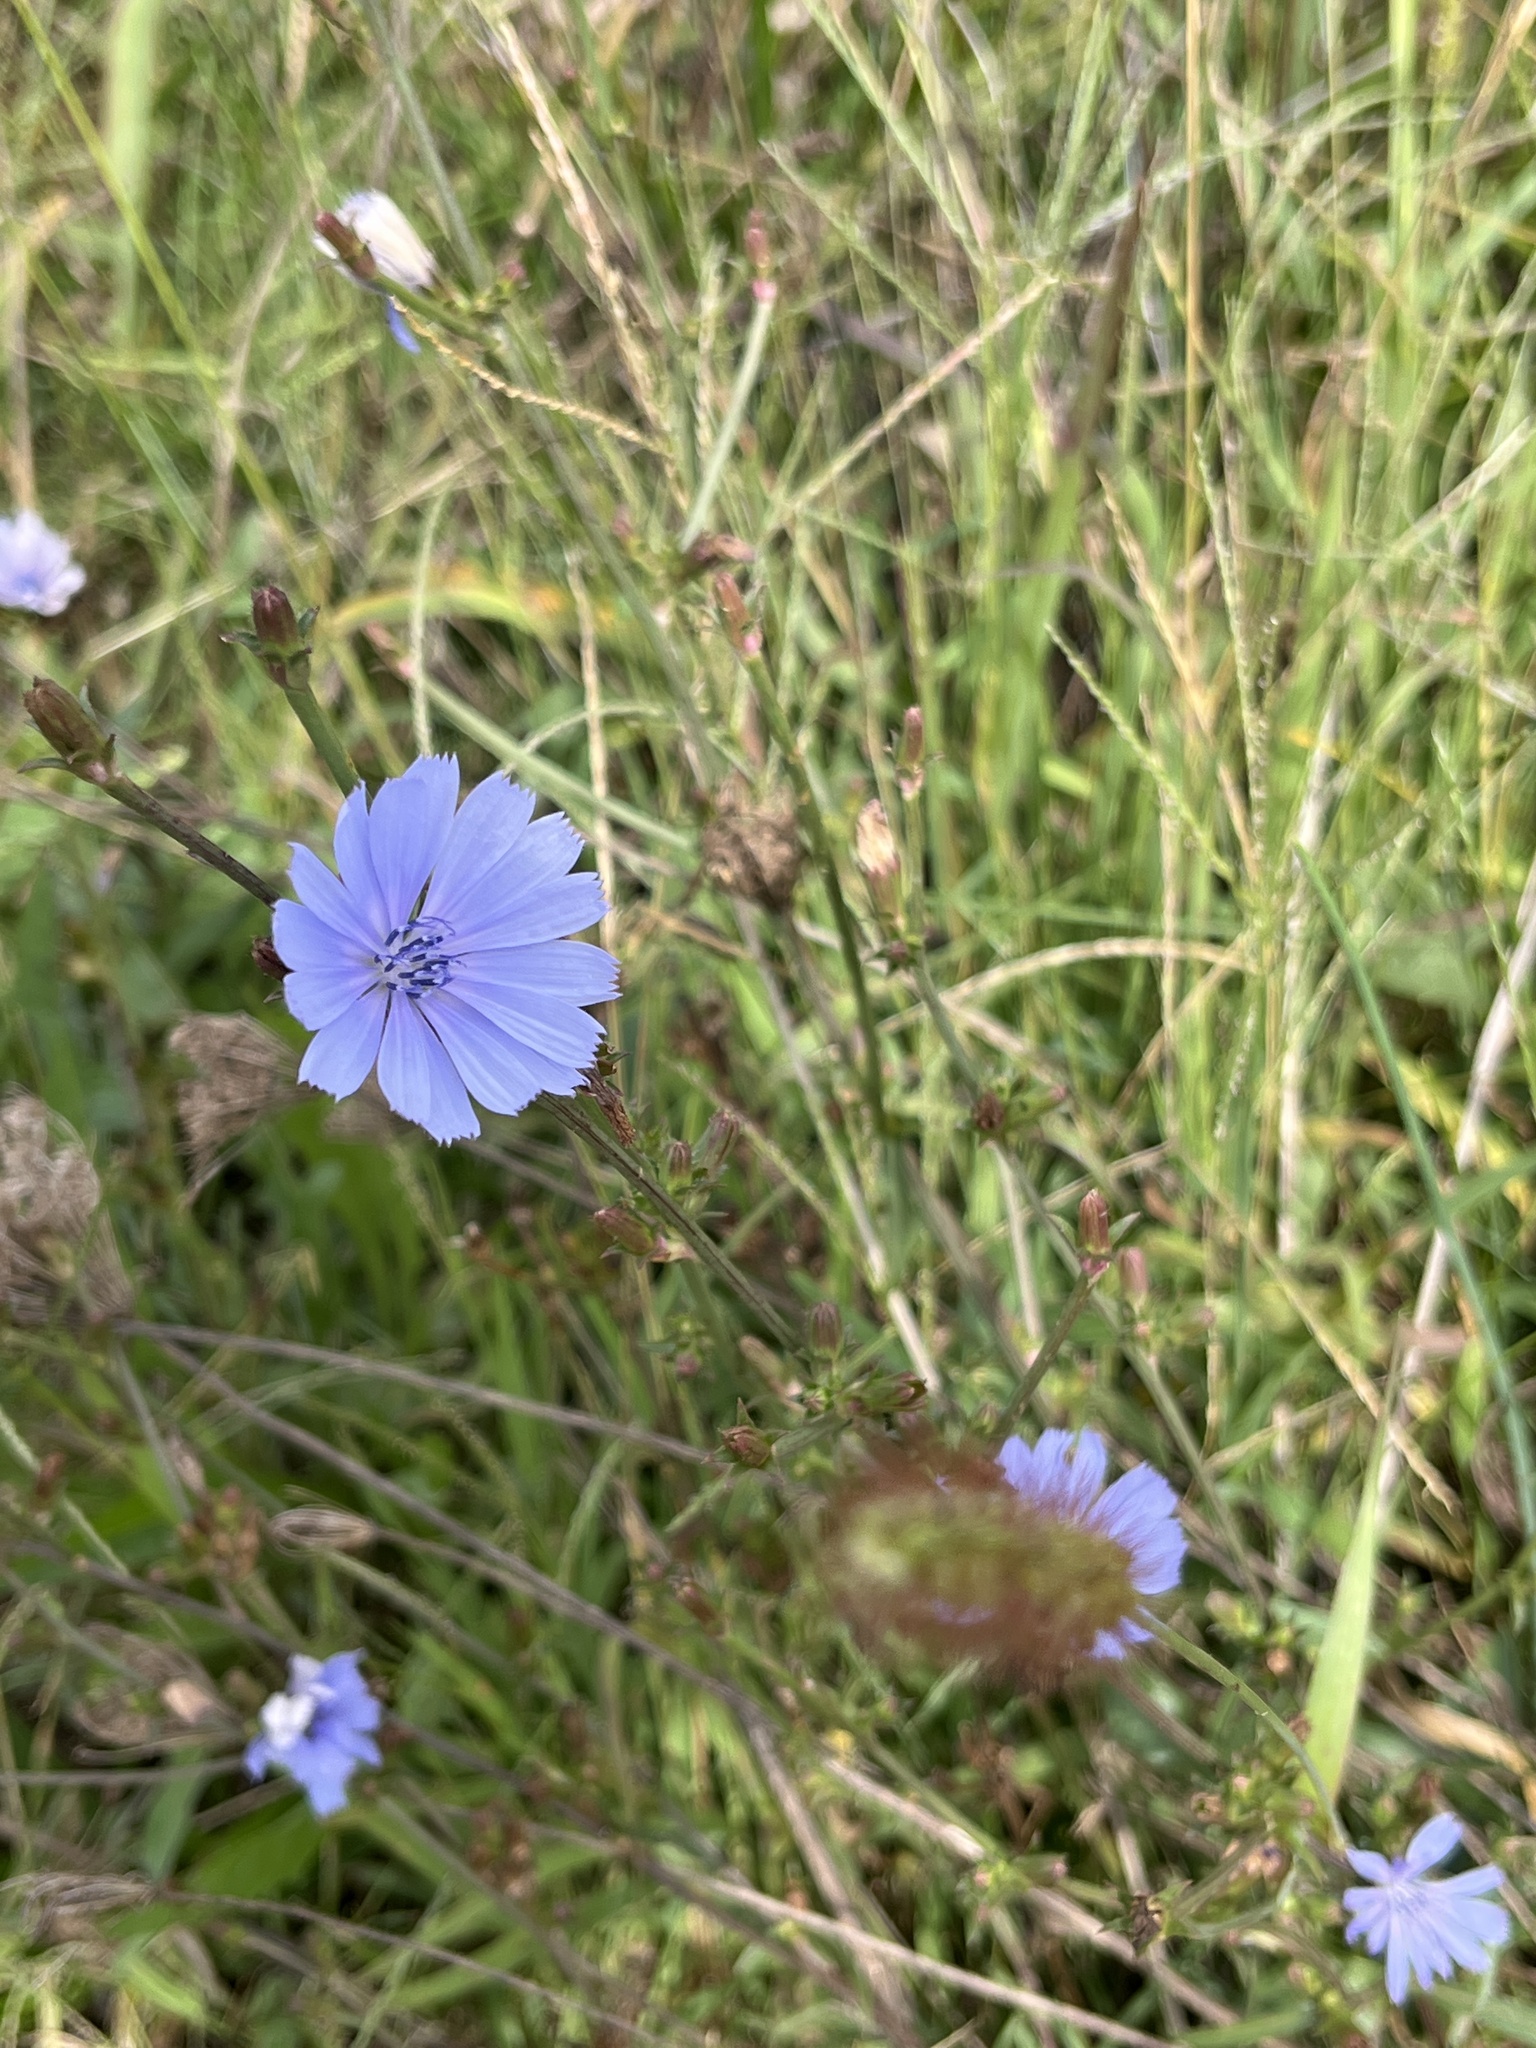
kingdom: Plantae
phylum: Tracheophyta
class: Magnoliopsida
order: Asterales
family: Asteraceae
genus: Cichorium
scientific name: Cichorium intybus
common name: Chicory
